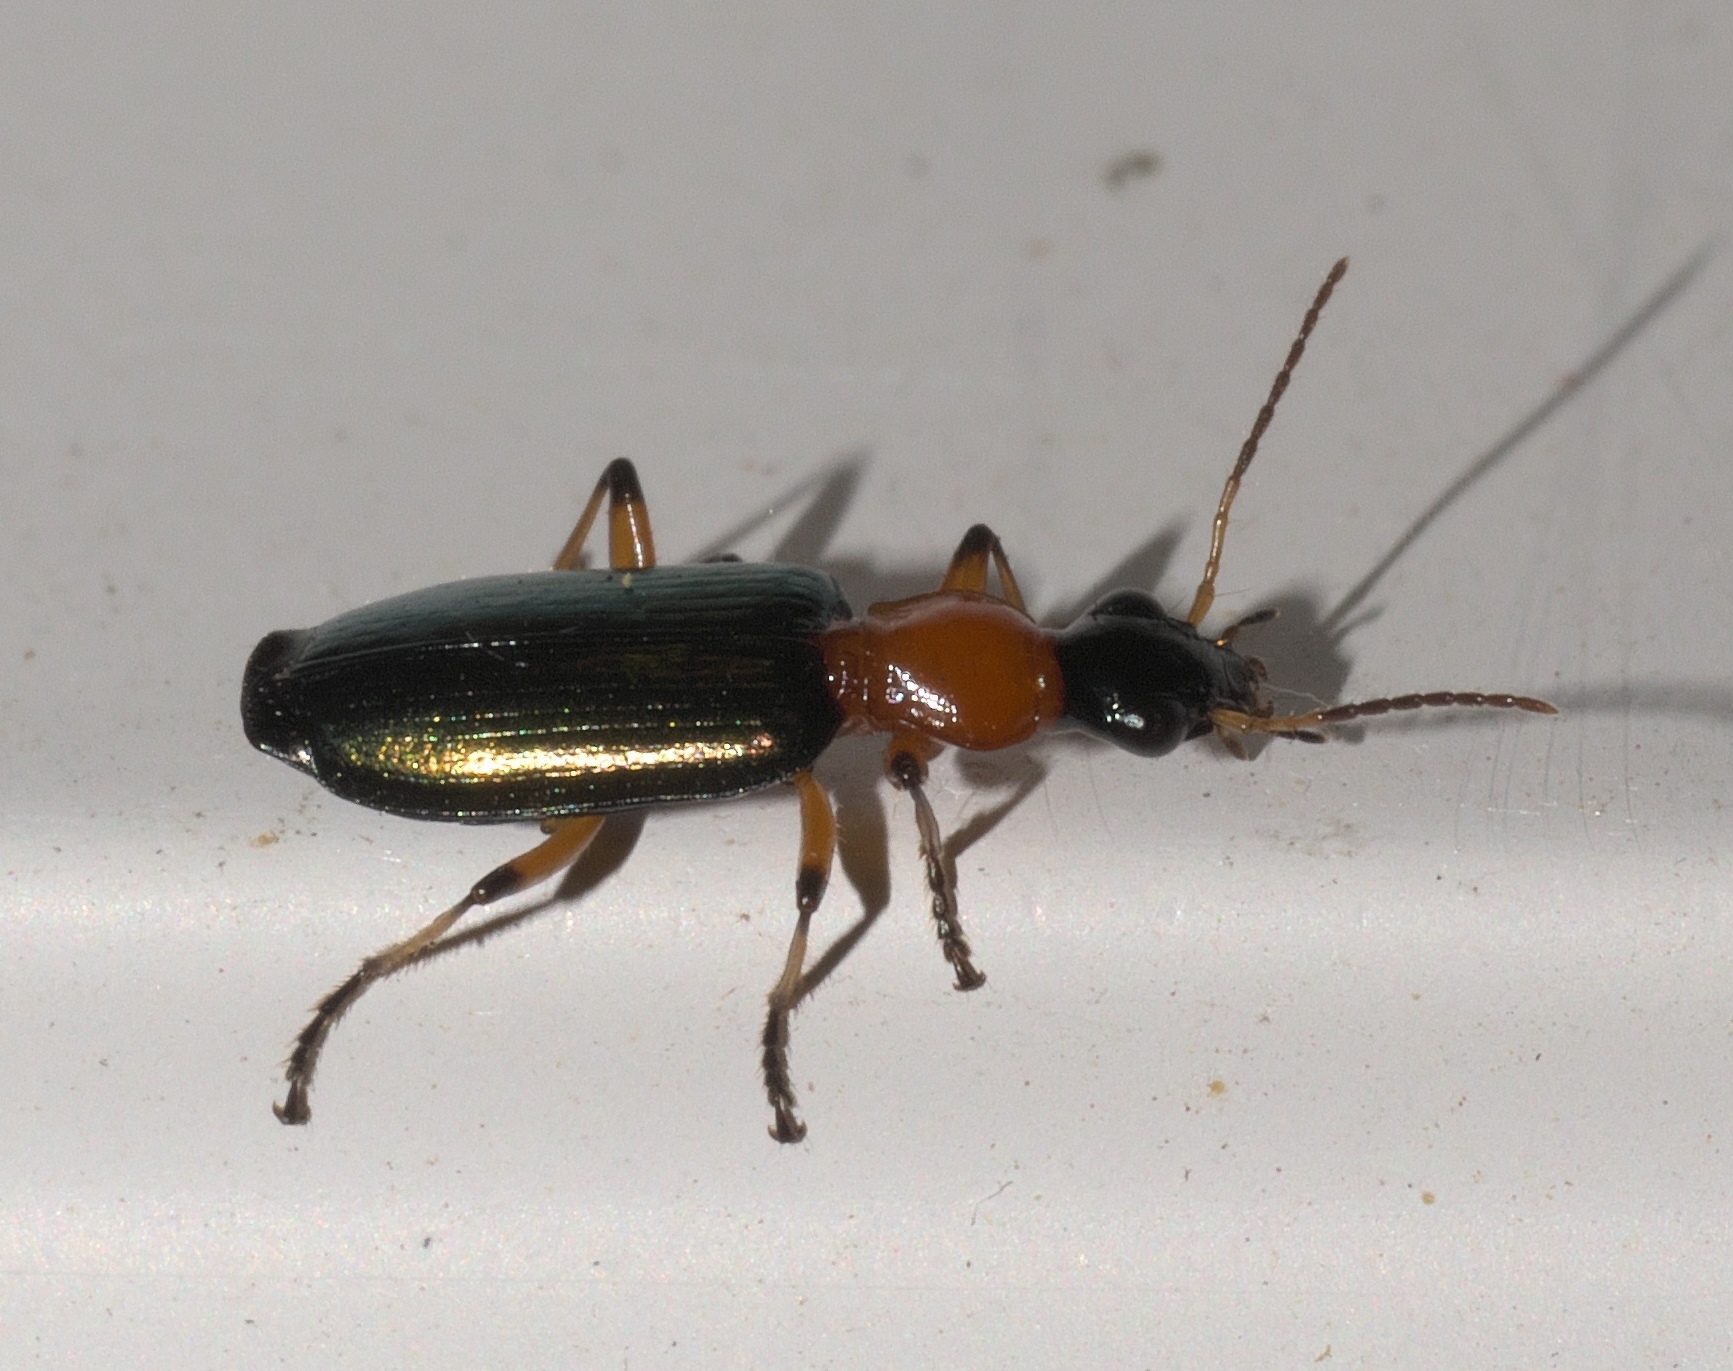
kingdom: Animalia
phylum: Arthropoda
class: Insecta
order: Coleoptera
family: Carabidae
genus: Calleida
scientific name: Calleida cordicollis
